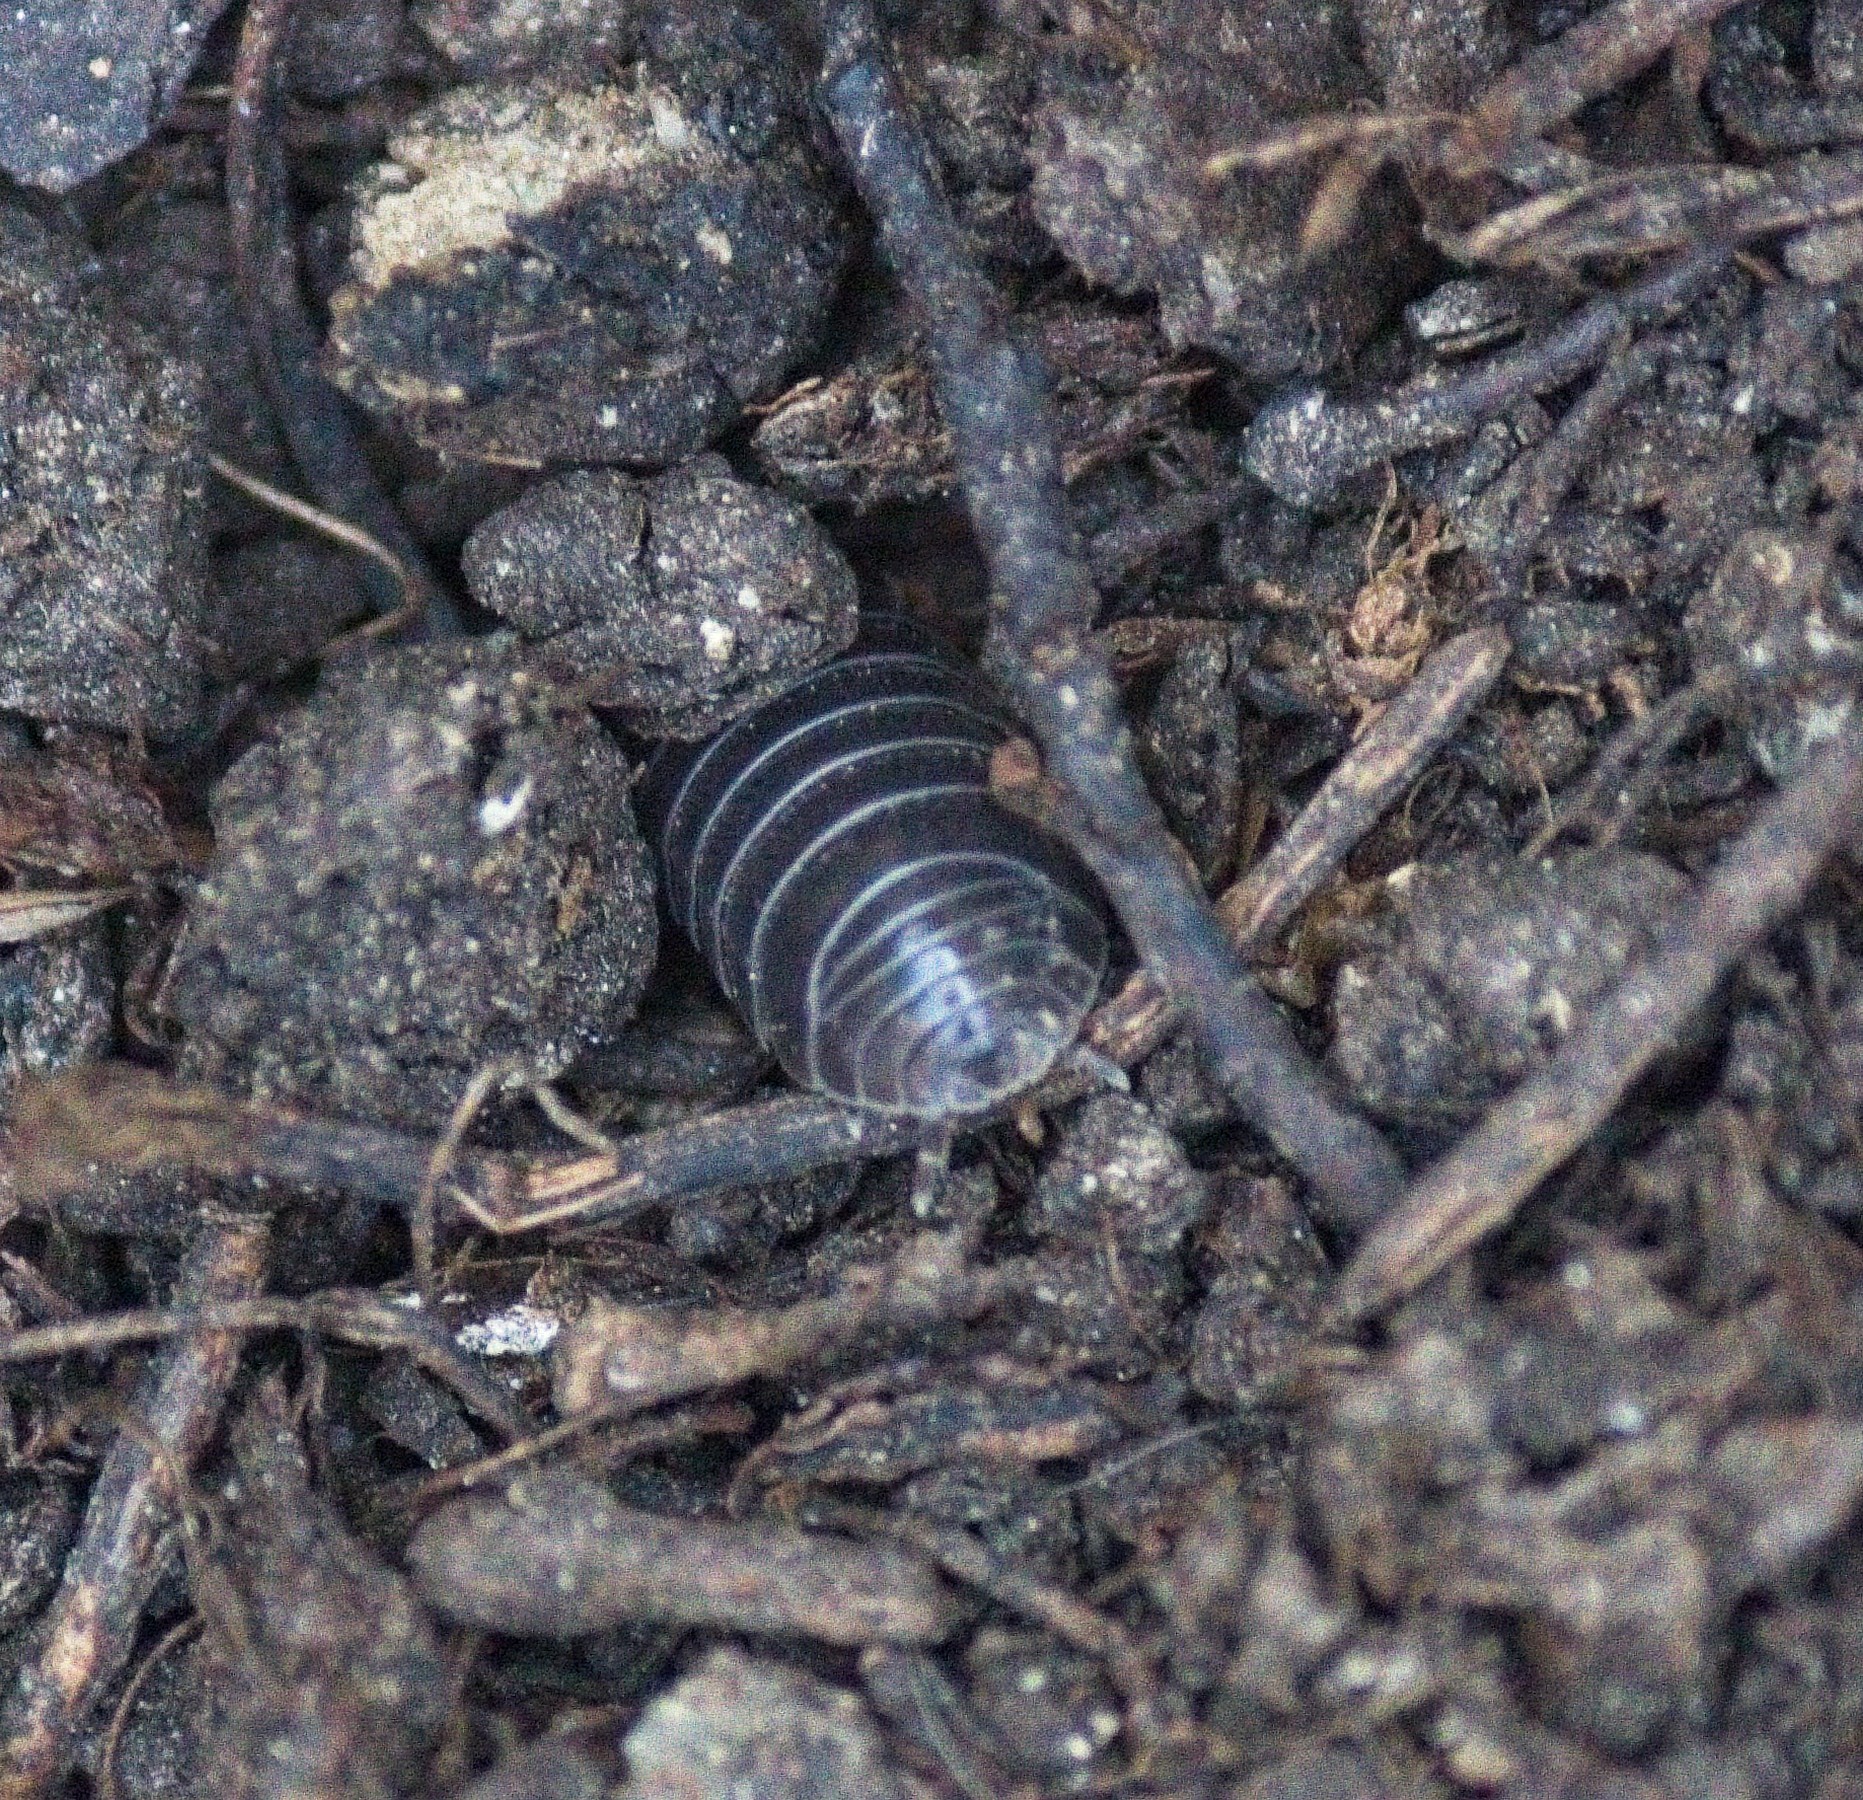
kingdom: Animalia
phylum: Arthropoda
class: Malacostraca
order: Isopoda
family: Armadillidiidae
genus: Armadillidium
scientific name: Armadillidium vulgare
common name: Common pill woodlouse
